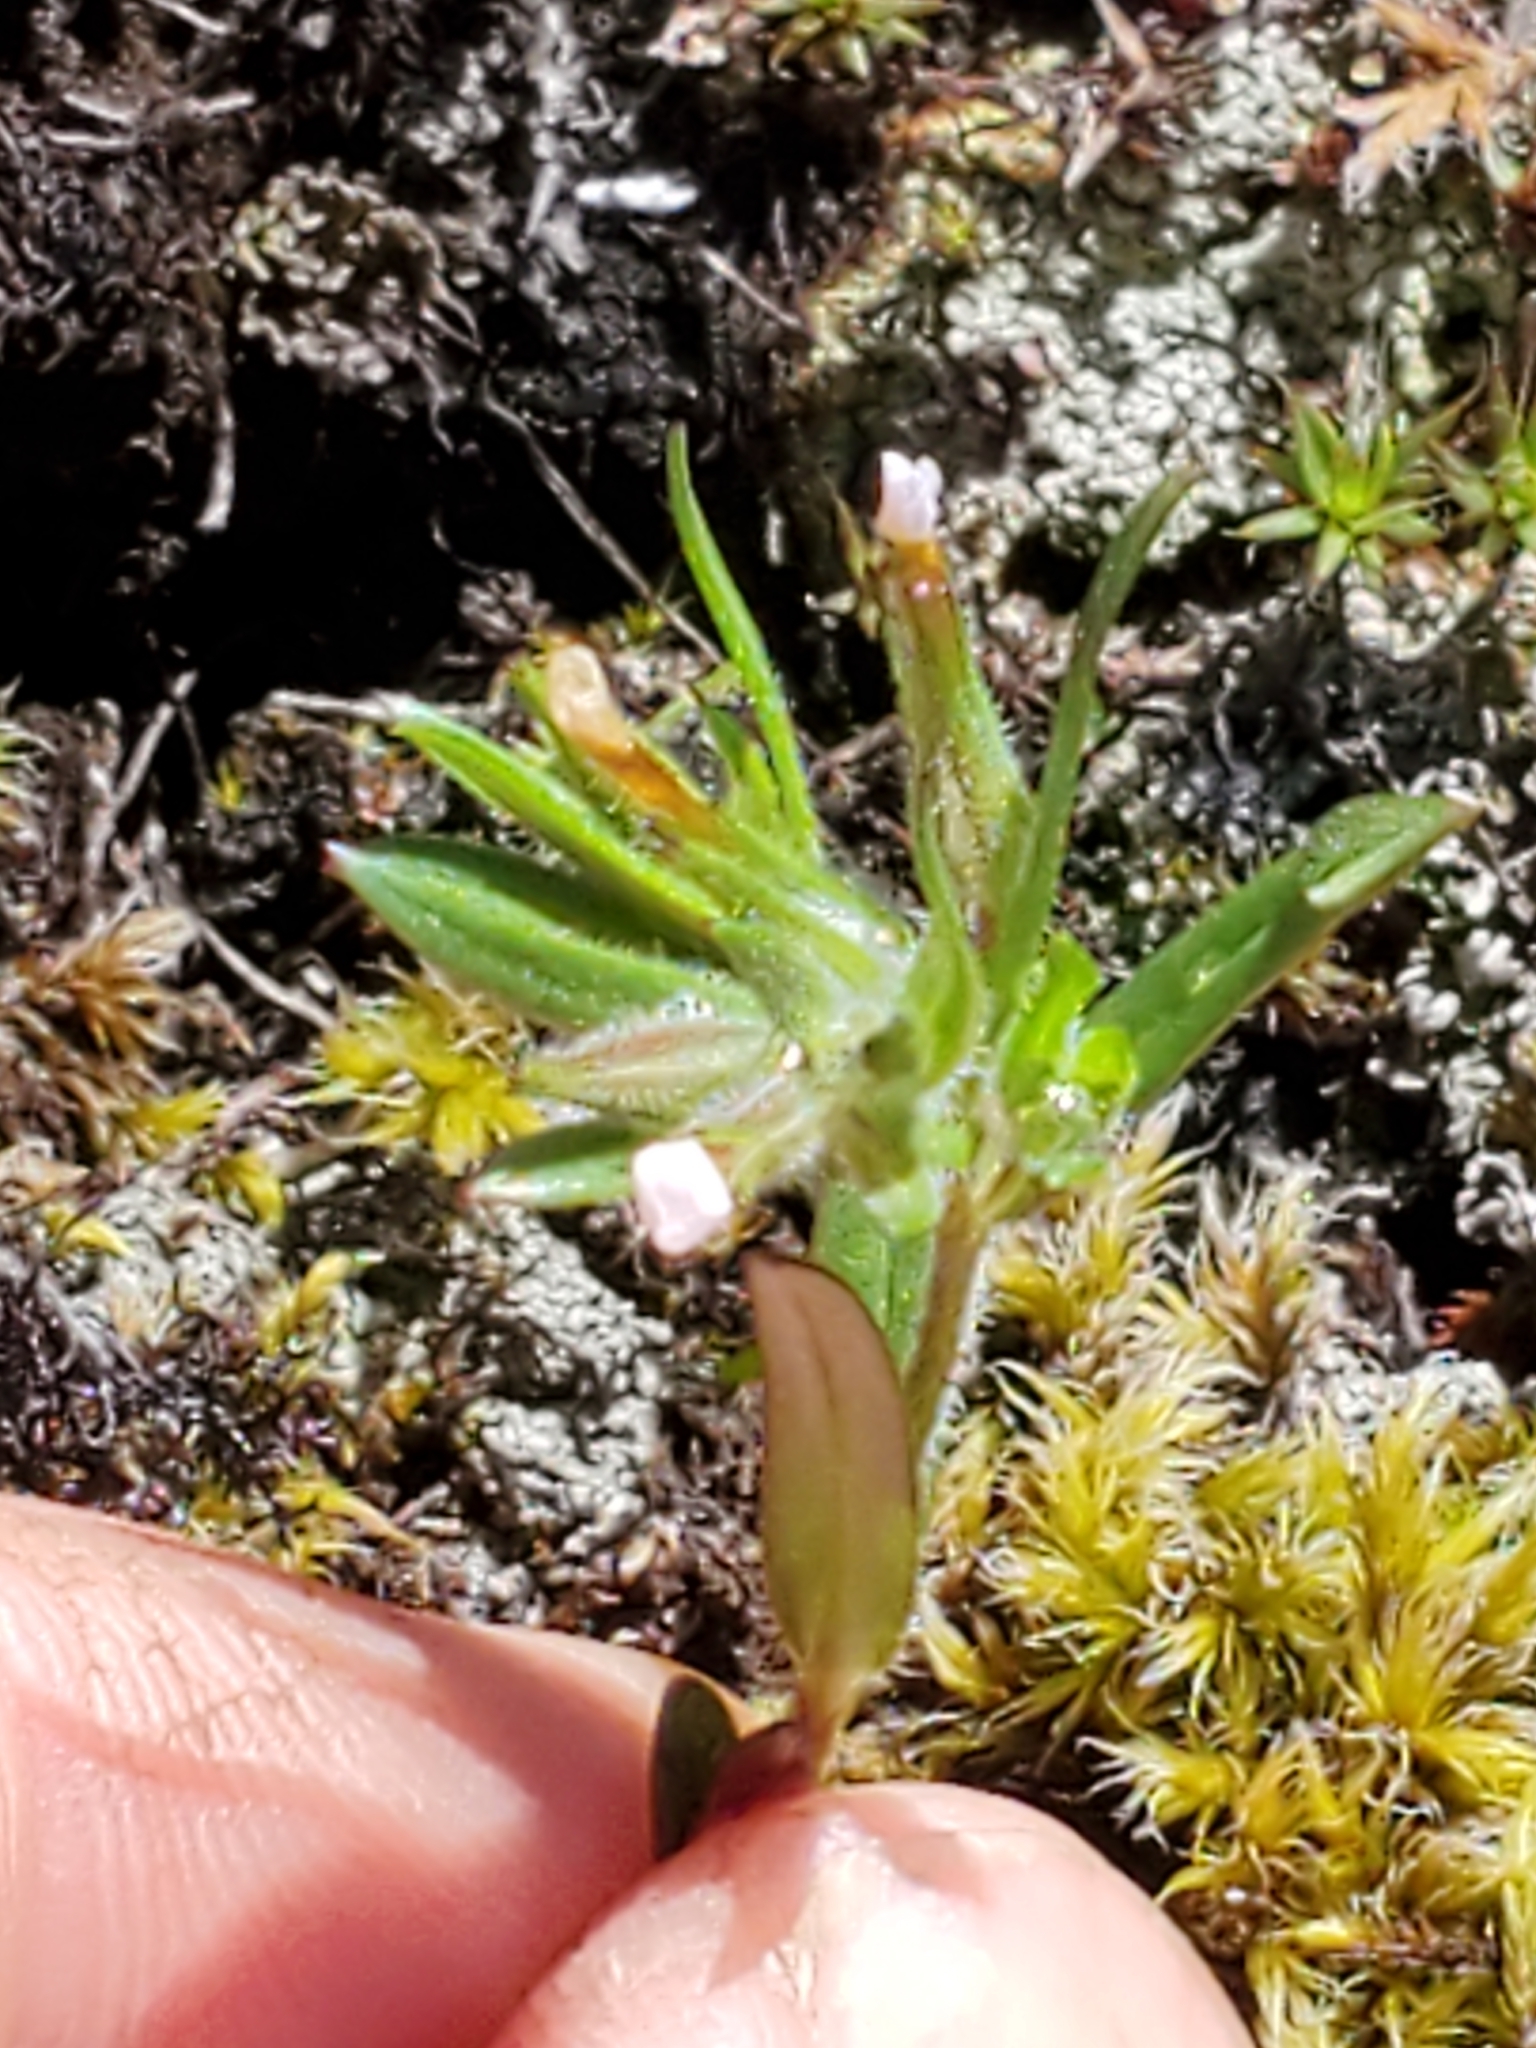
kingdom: Plantae
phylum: Tracheophyta
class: Magnoliopsida
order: Ericales
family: Polemoniaceae
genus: Phlox
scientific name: Phlox gracilis
